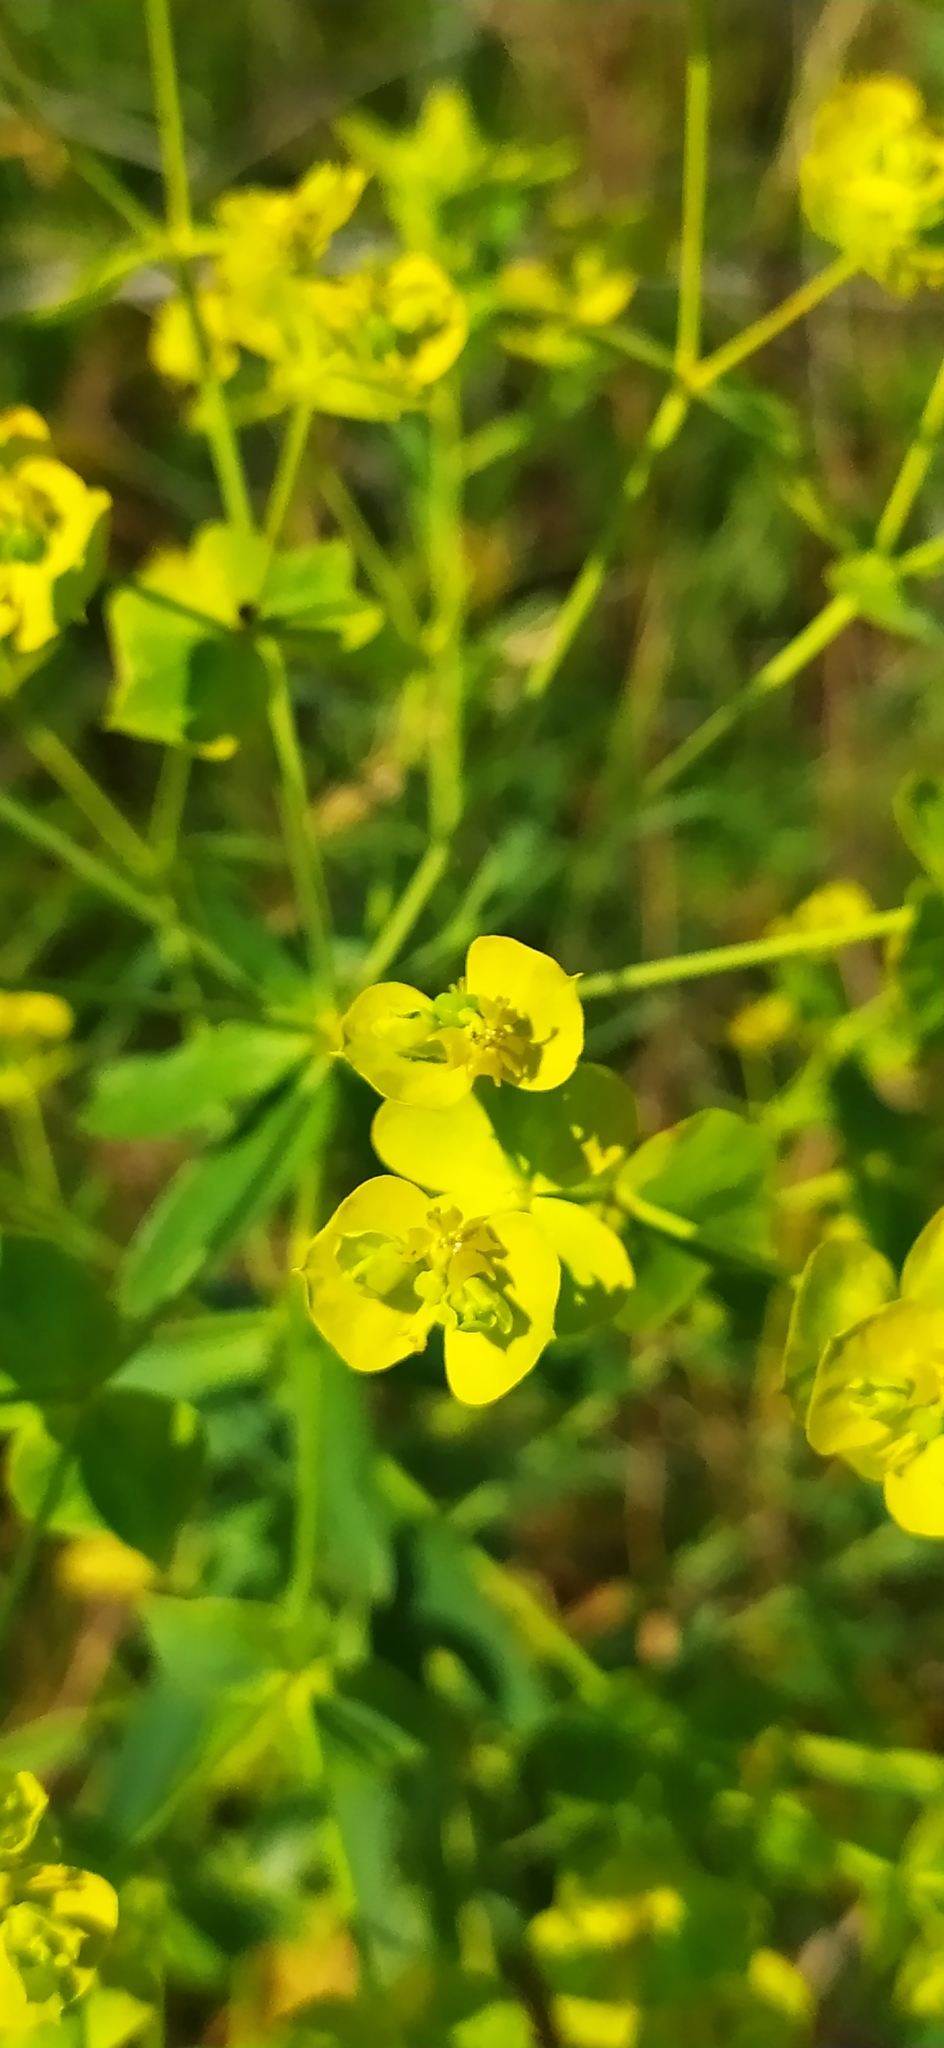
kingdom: Plantae
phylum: Tracheophyta
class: Magnoliopsida
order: Malpighiales
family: Euphorbiaceae
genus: Euphorbia
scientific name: Euphorbia virgata
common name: Leafy spurge
